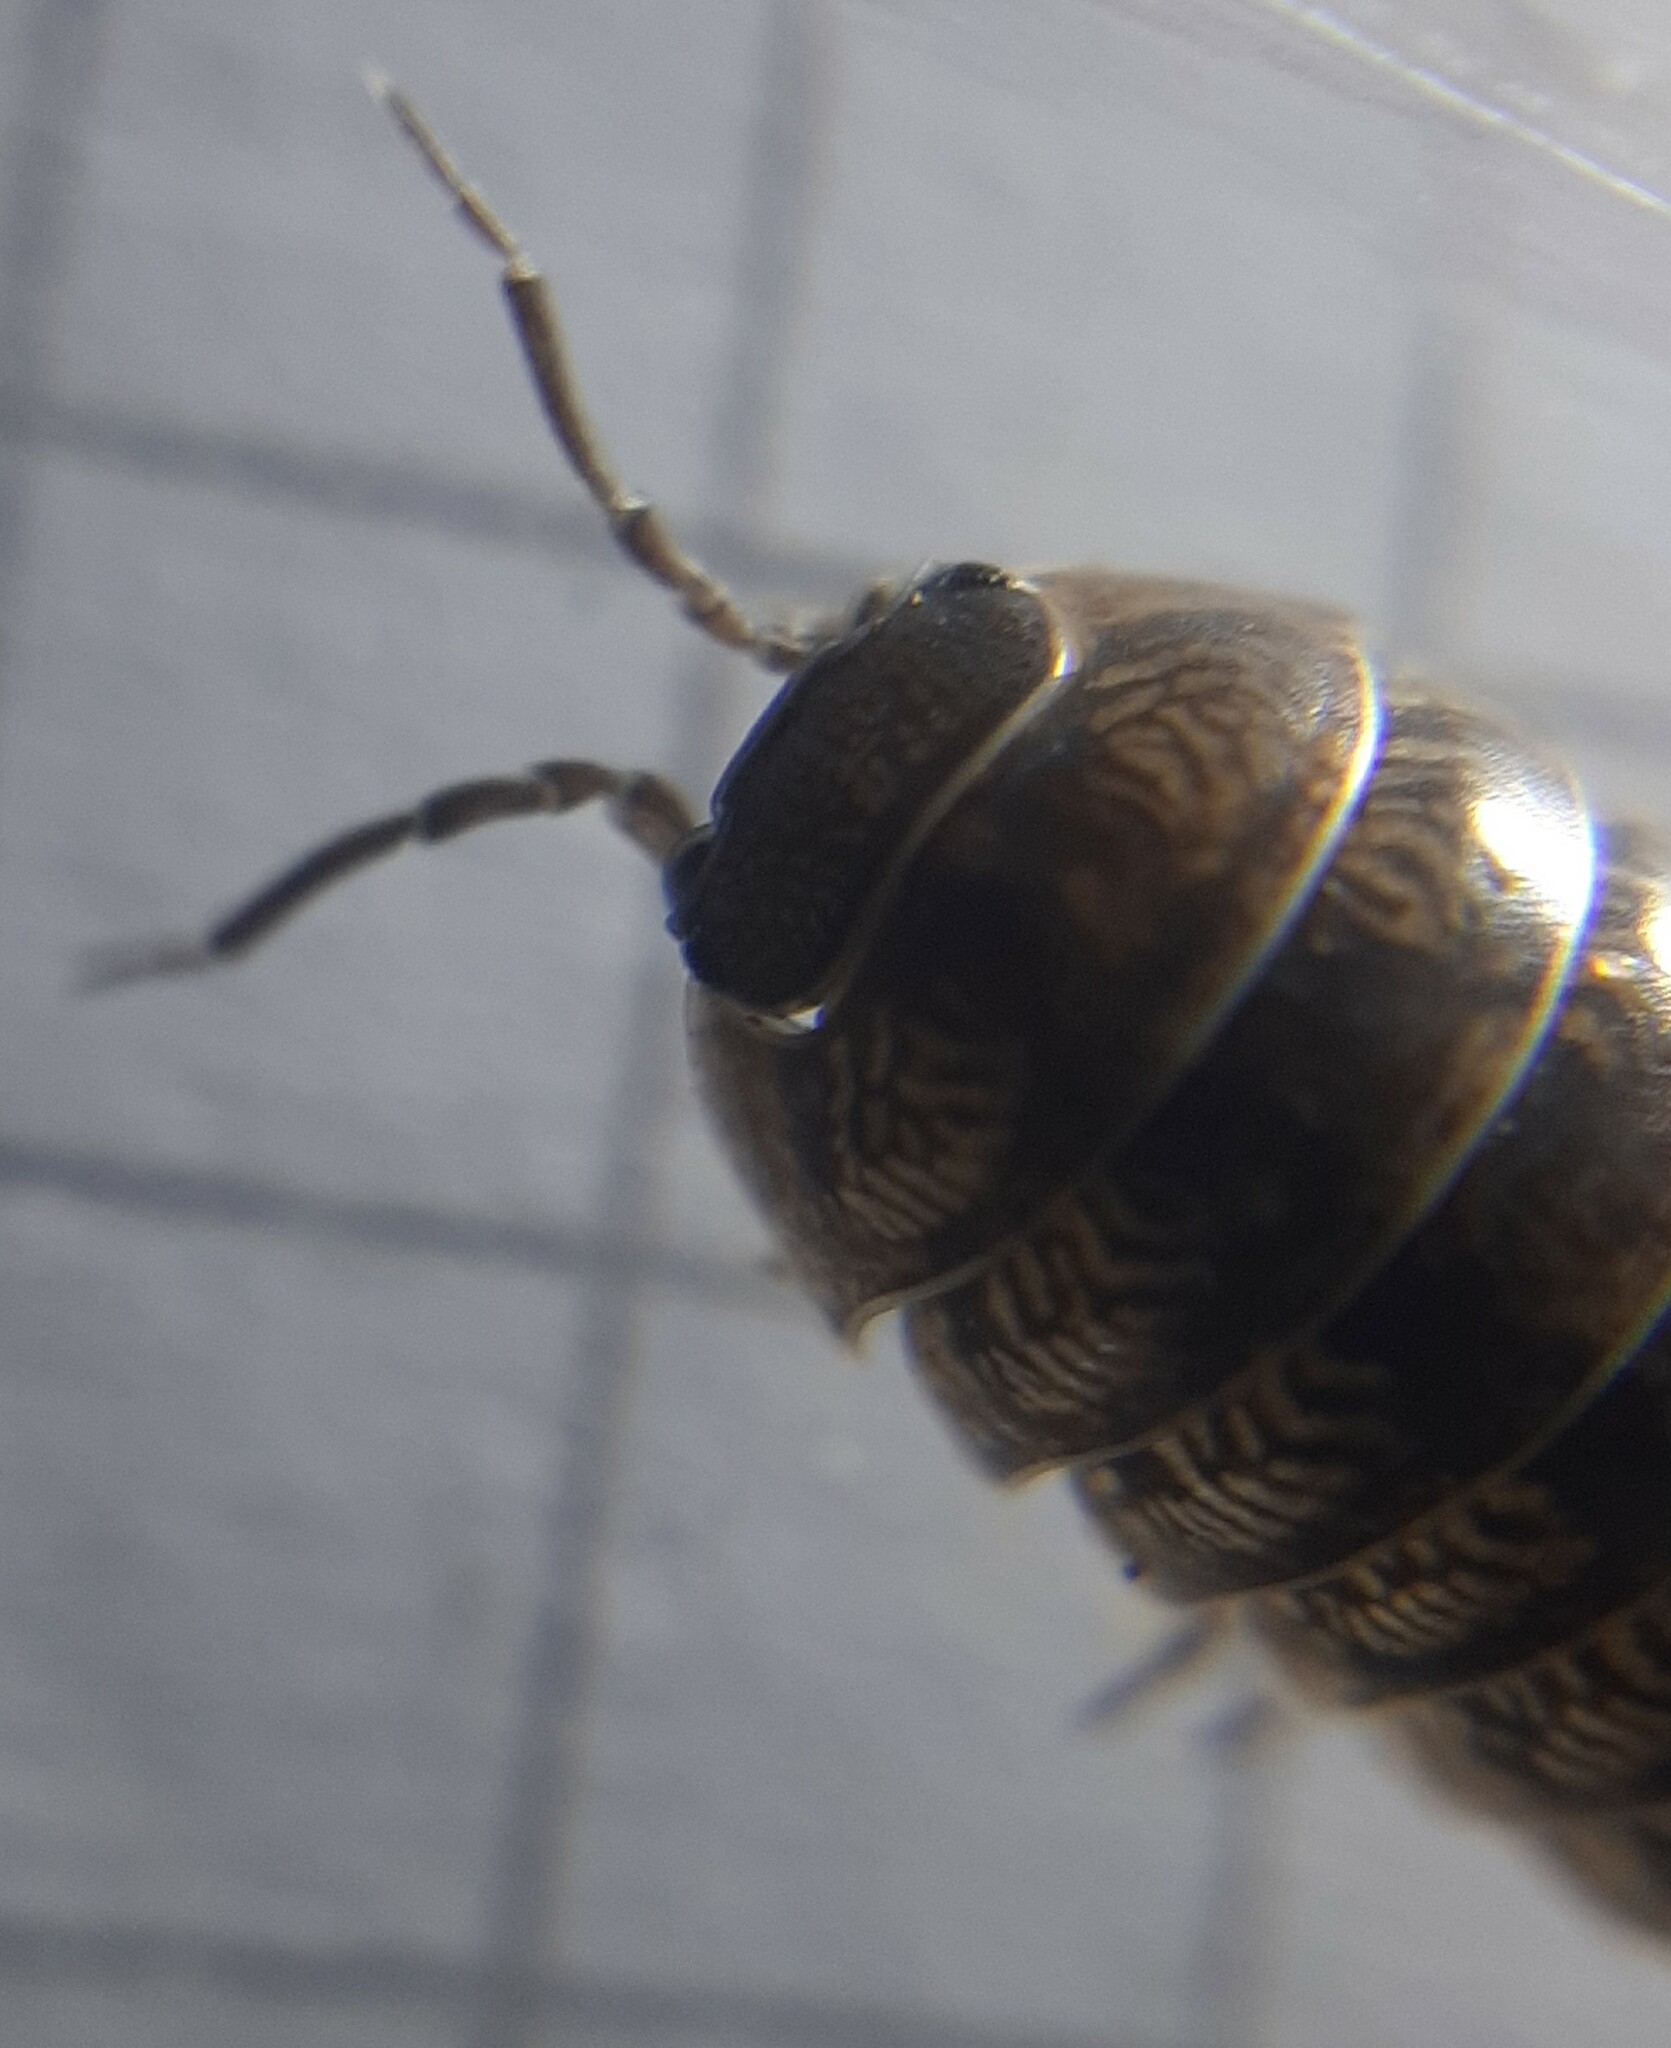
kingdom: Animalia
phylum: Arthropoda
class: Malacostraca
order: Isopoda
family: Armadillidiidae
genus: Armadillidium
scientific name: Armadillidium vulgare
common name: Common pill woodlouse
